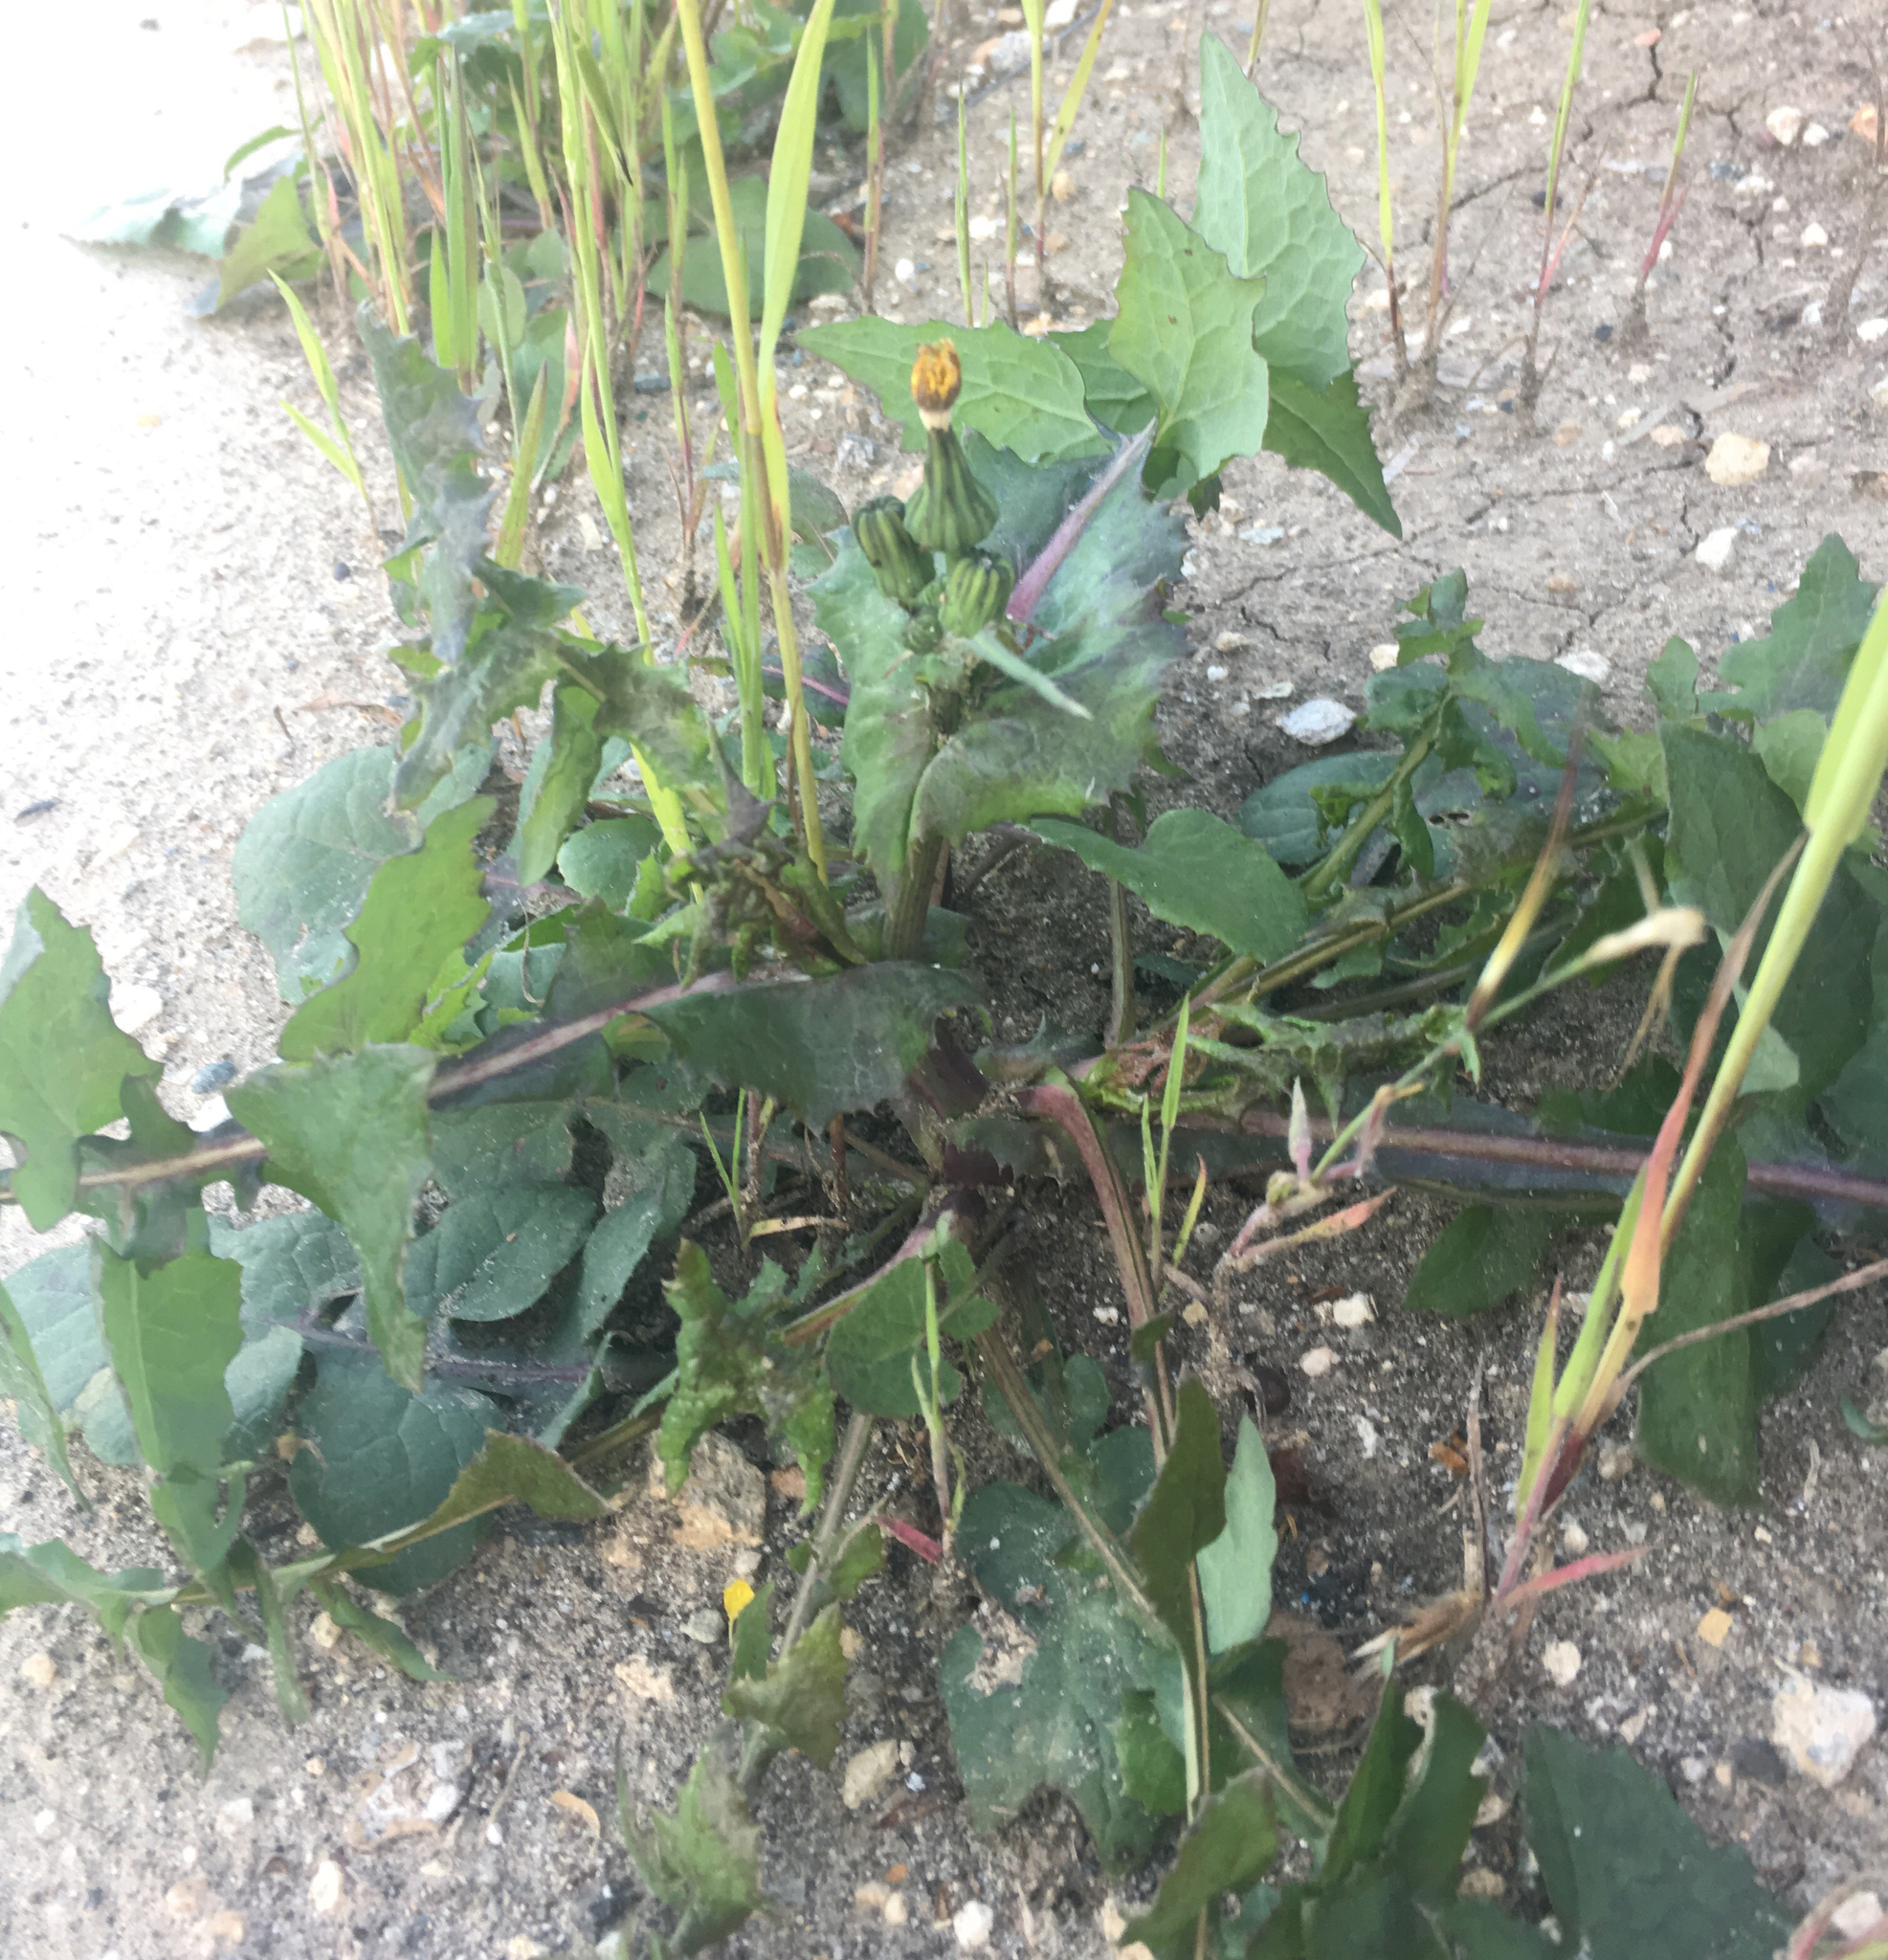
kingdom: Plantae
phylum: Tracheophyta
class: Magnoliopsida
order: Asterales
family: Asteraceae
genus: Sonchus
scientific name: Sonchus oleraceus
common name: Common sowthistle
